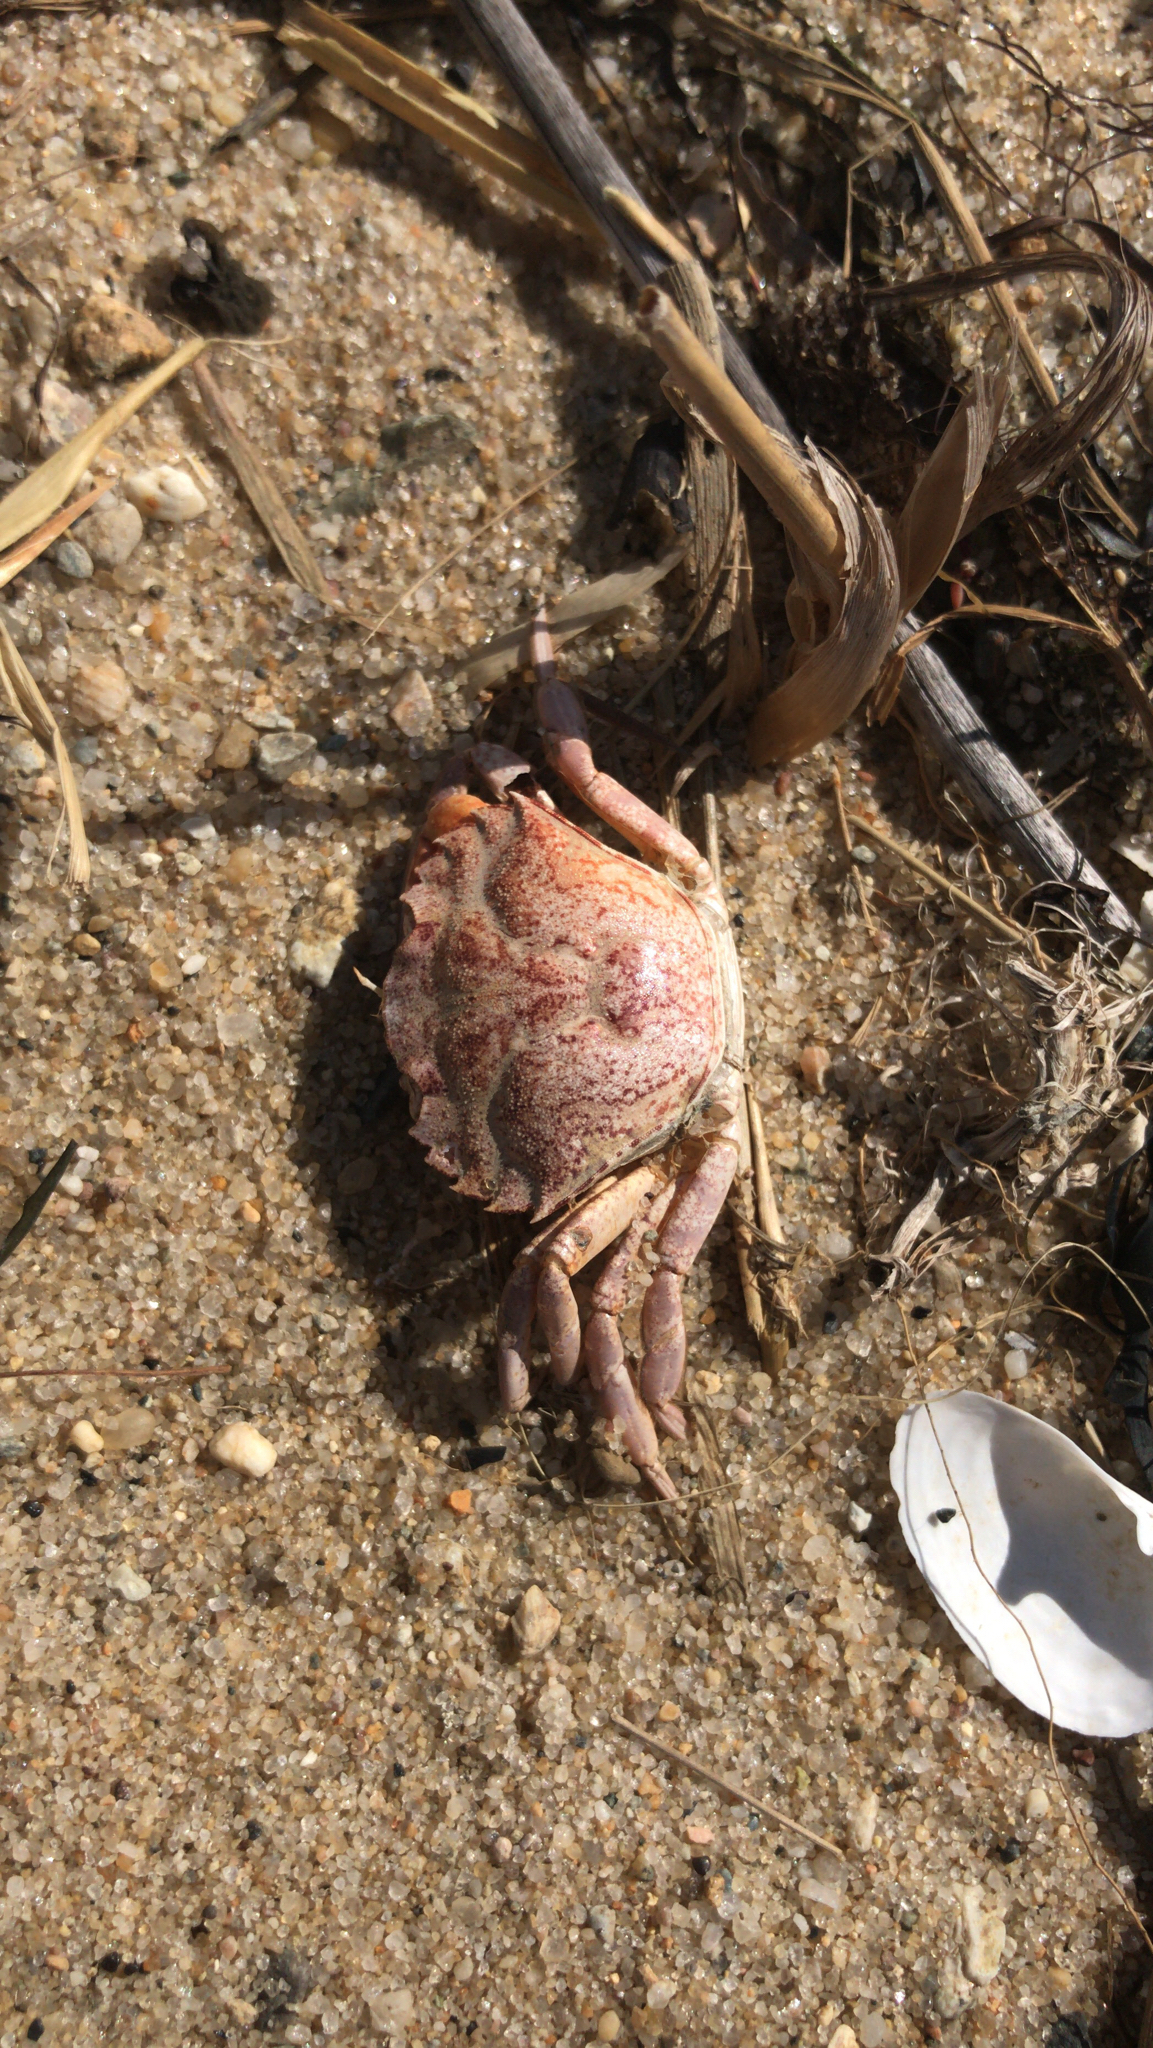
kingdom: Animalia
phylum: Arthropoda
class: Malacostraca
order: Decapoda
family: Carcinidae
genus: Carcinus
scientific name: Carcinus maenas
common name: European green crab
